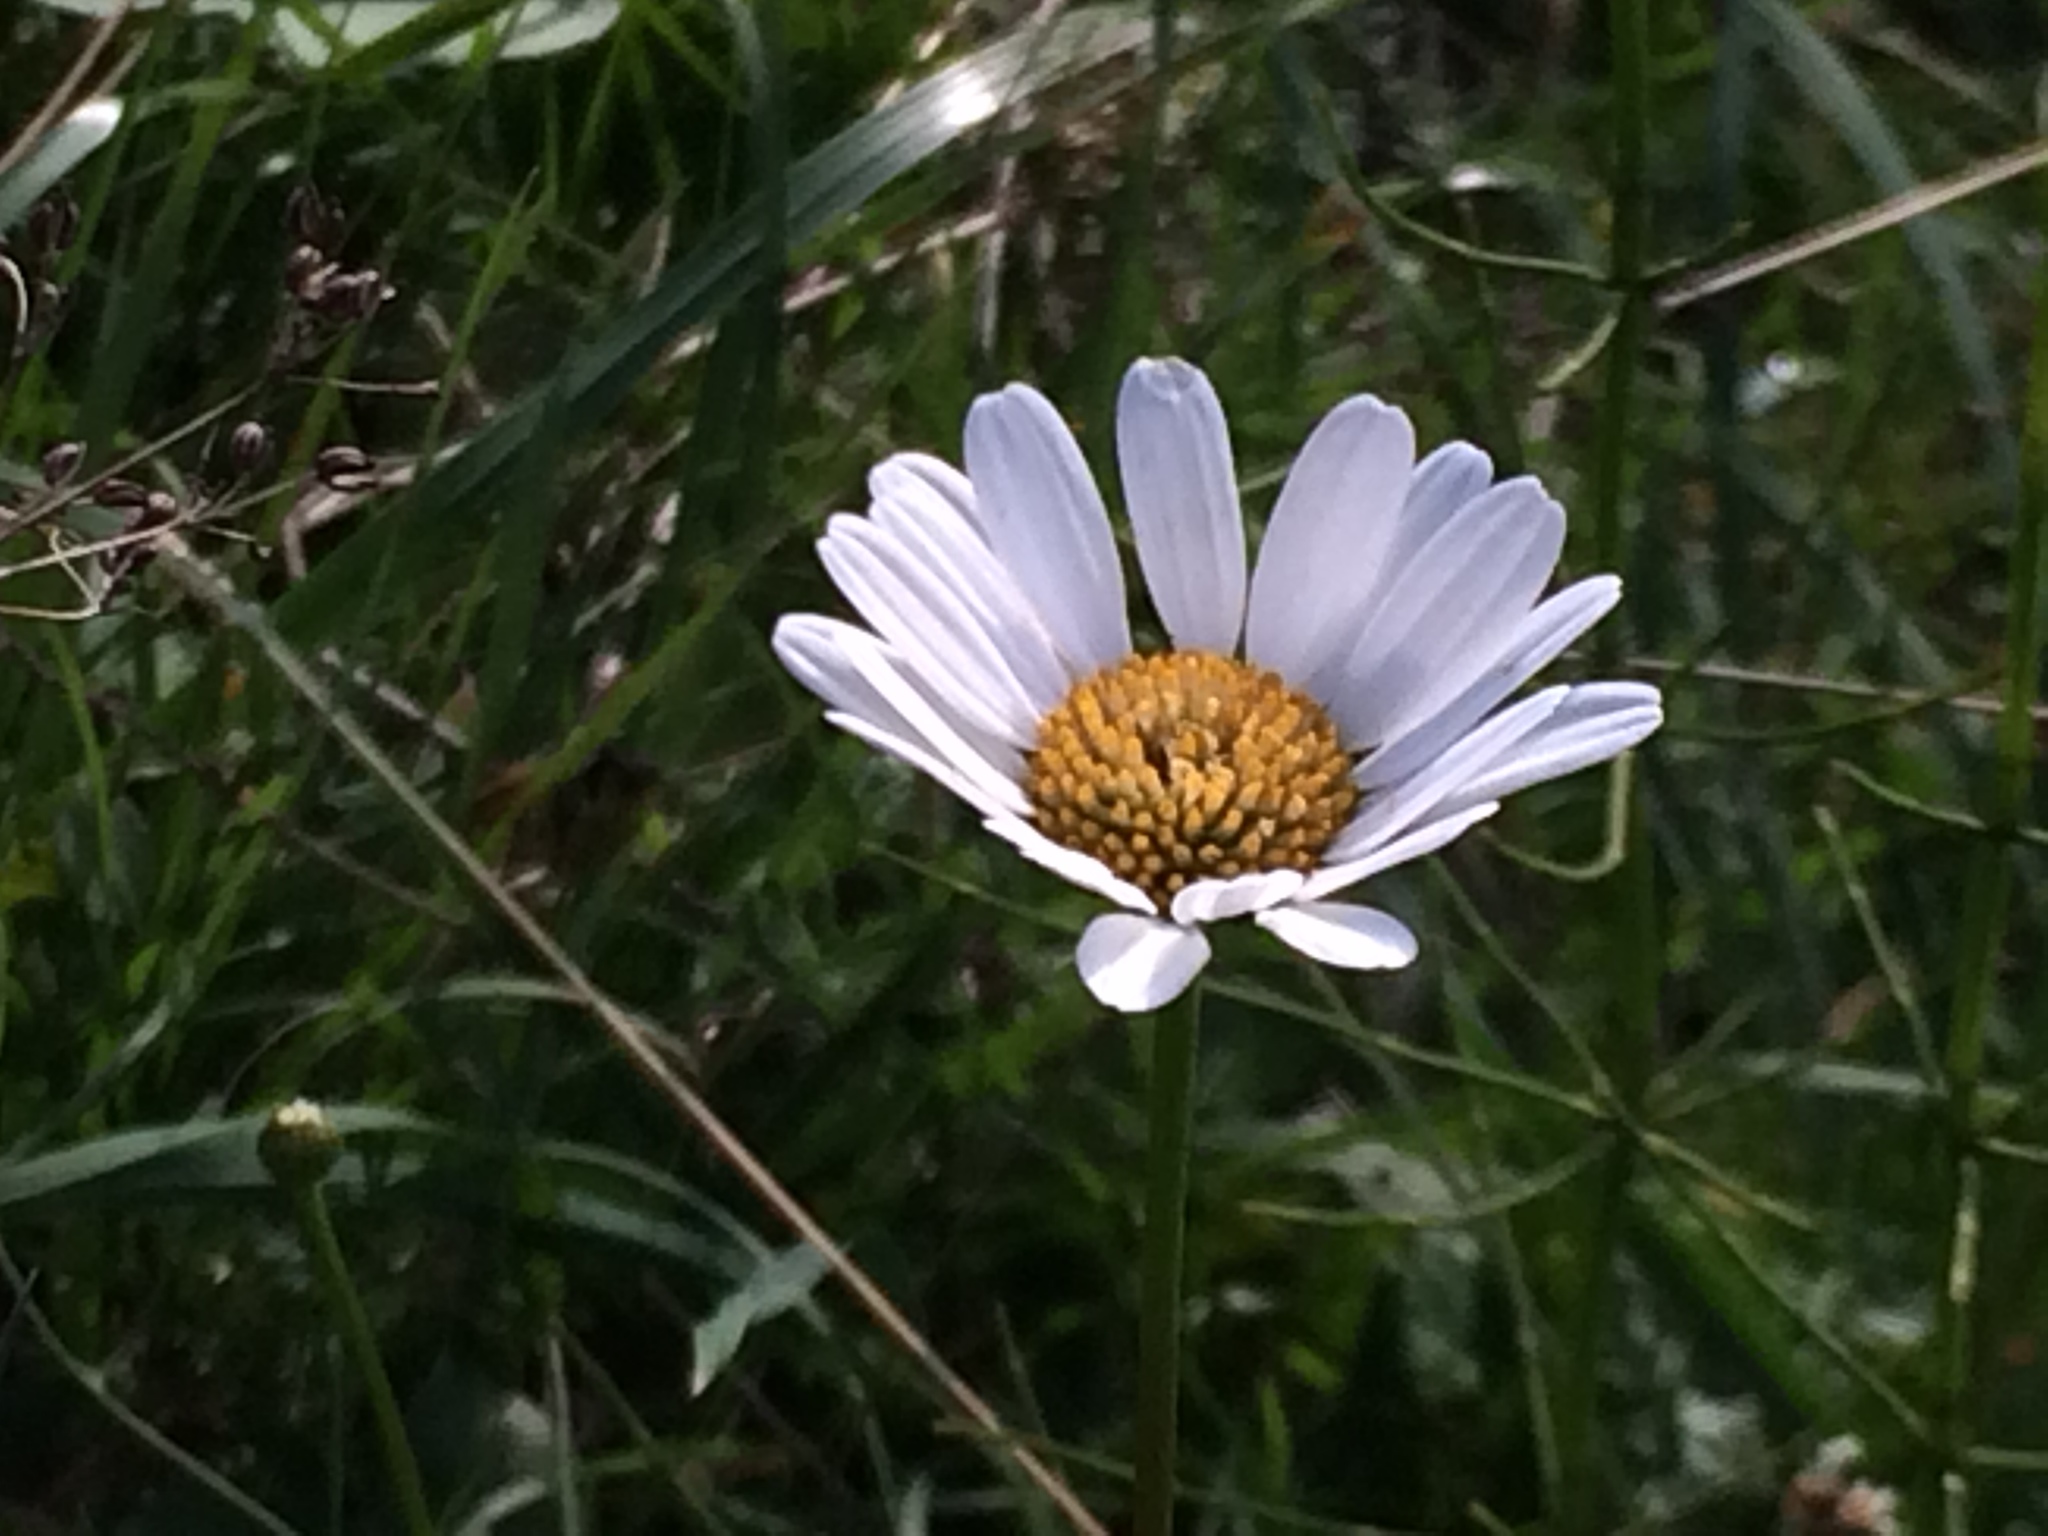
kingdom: Plantae
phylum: Tracheophyta
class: Magnoliopsida
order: Asterales
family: Asteraceae
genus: Leucanthemum
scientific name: Leucanthemum vulgare
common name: Oxeye daisy
